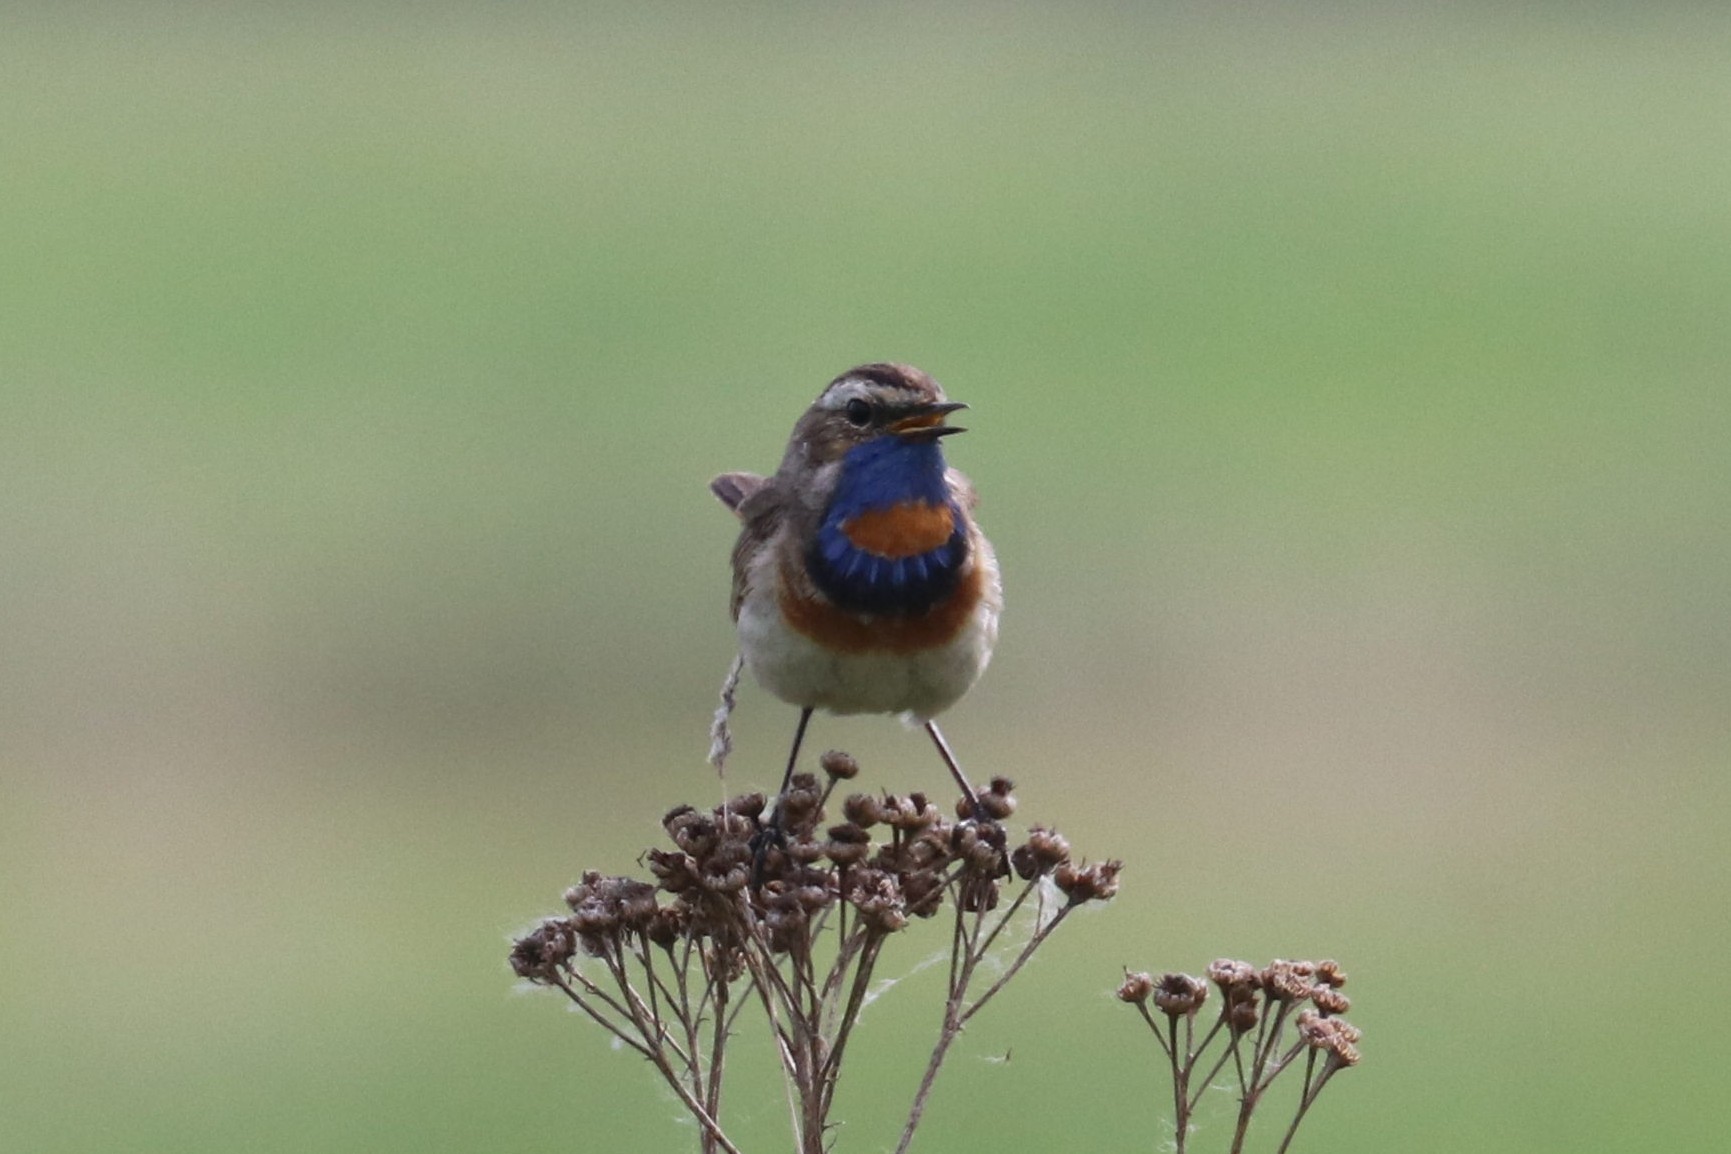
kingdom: Animalia
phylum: Chordata
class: Aves
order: Passeriformes
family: Muscicapidae
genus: Luscinia
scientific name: Luscinia svecica
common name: Bluethroat
